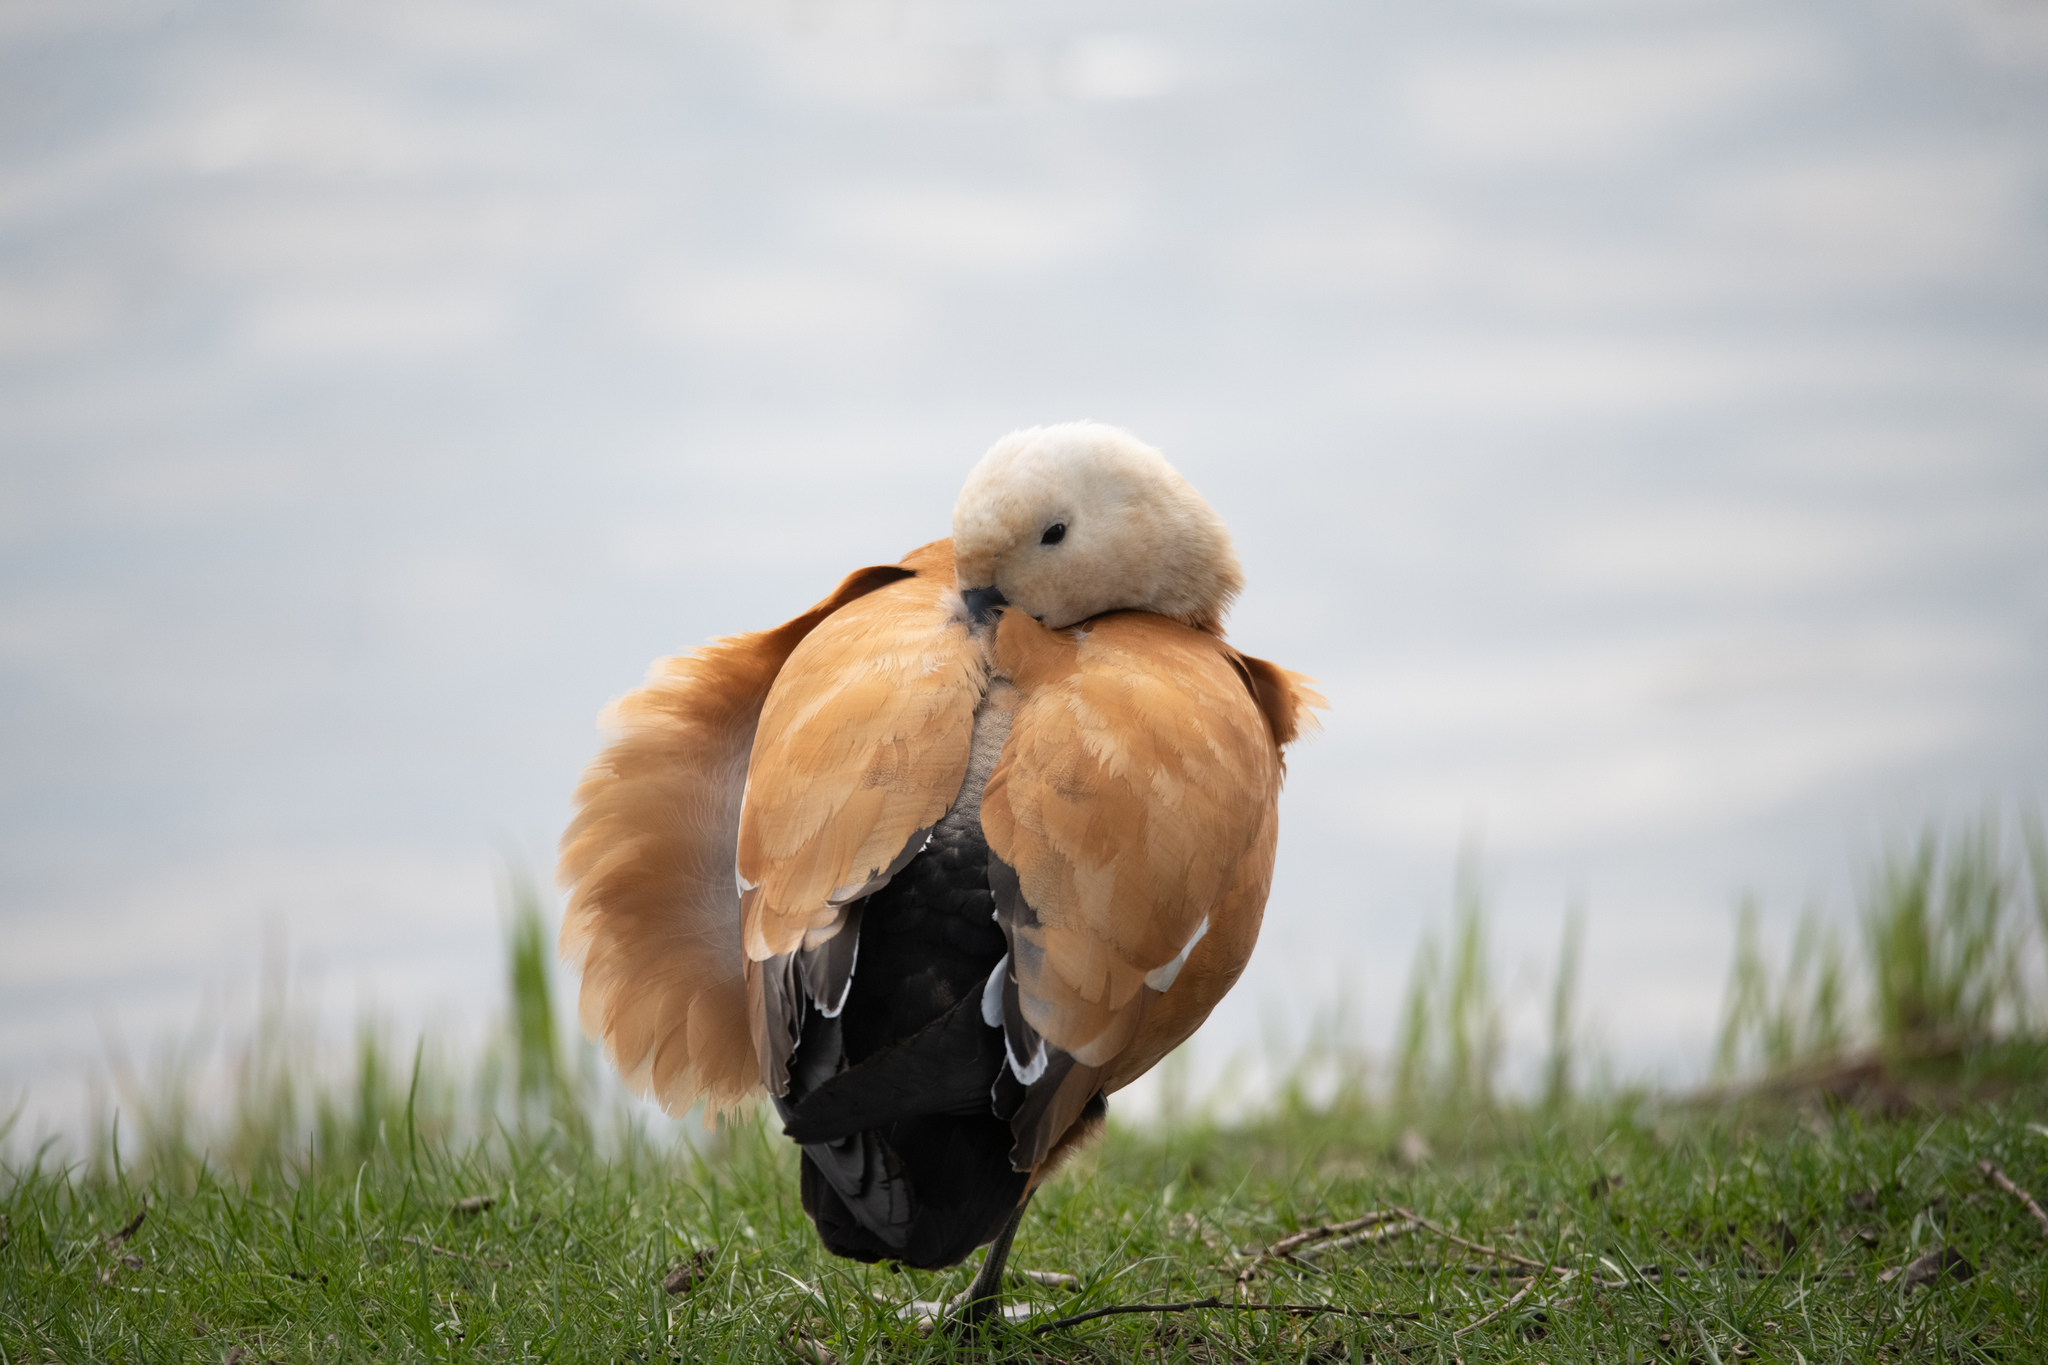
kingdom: Animalia
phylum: Chordata
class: Aves
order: Anseriformes
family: Anatidae
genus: Tadorna
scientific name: Tadorna ferruginea
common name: Ruddy shelduck
